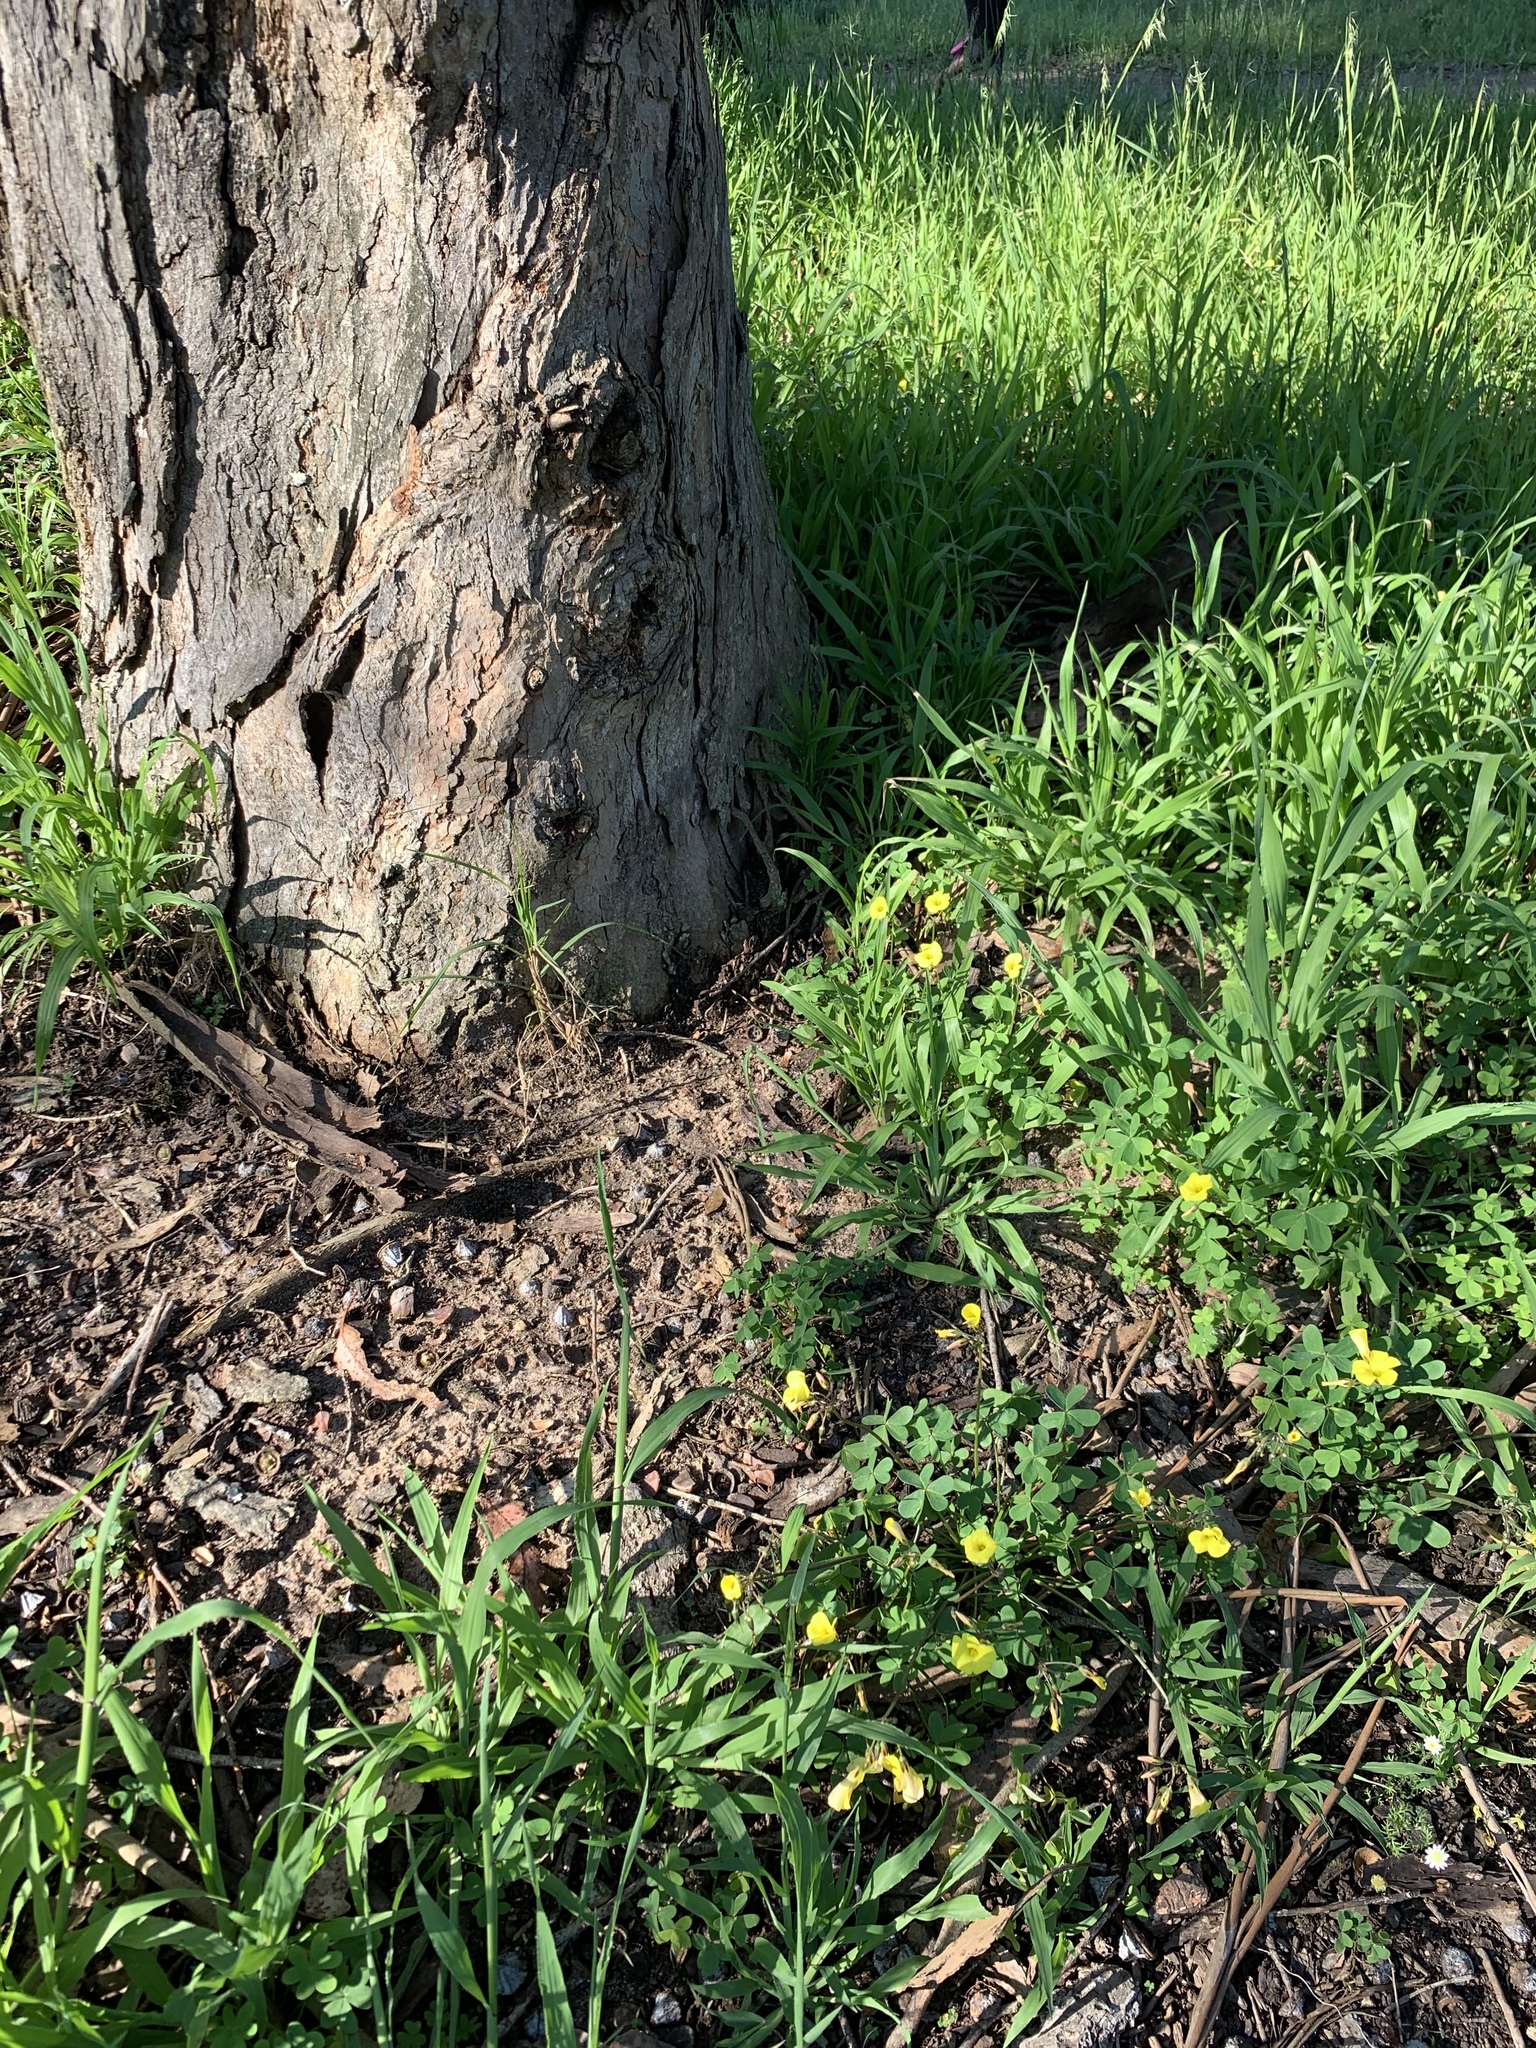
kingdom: Plantae
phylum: Tracheophyta
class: Magnoliopsida
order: Oxalidales
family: Oxalidaceae
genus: Oxalis
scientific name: Oxalis pes-caprae
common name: Bermuda-buttercup
